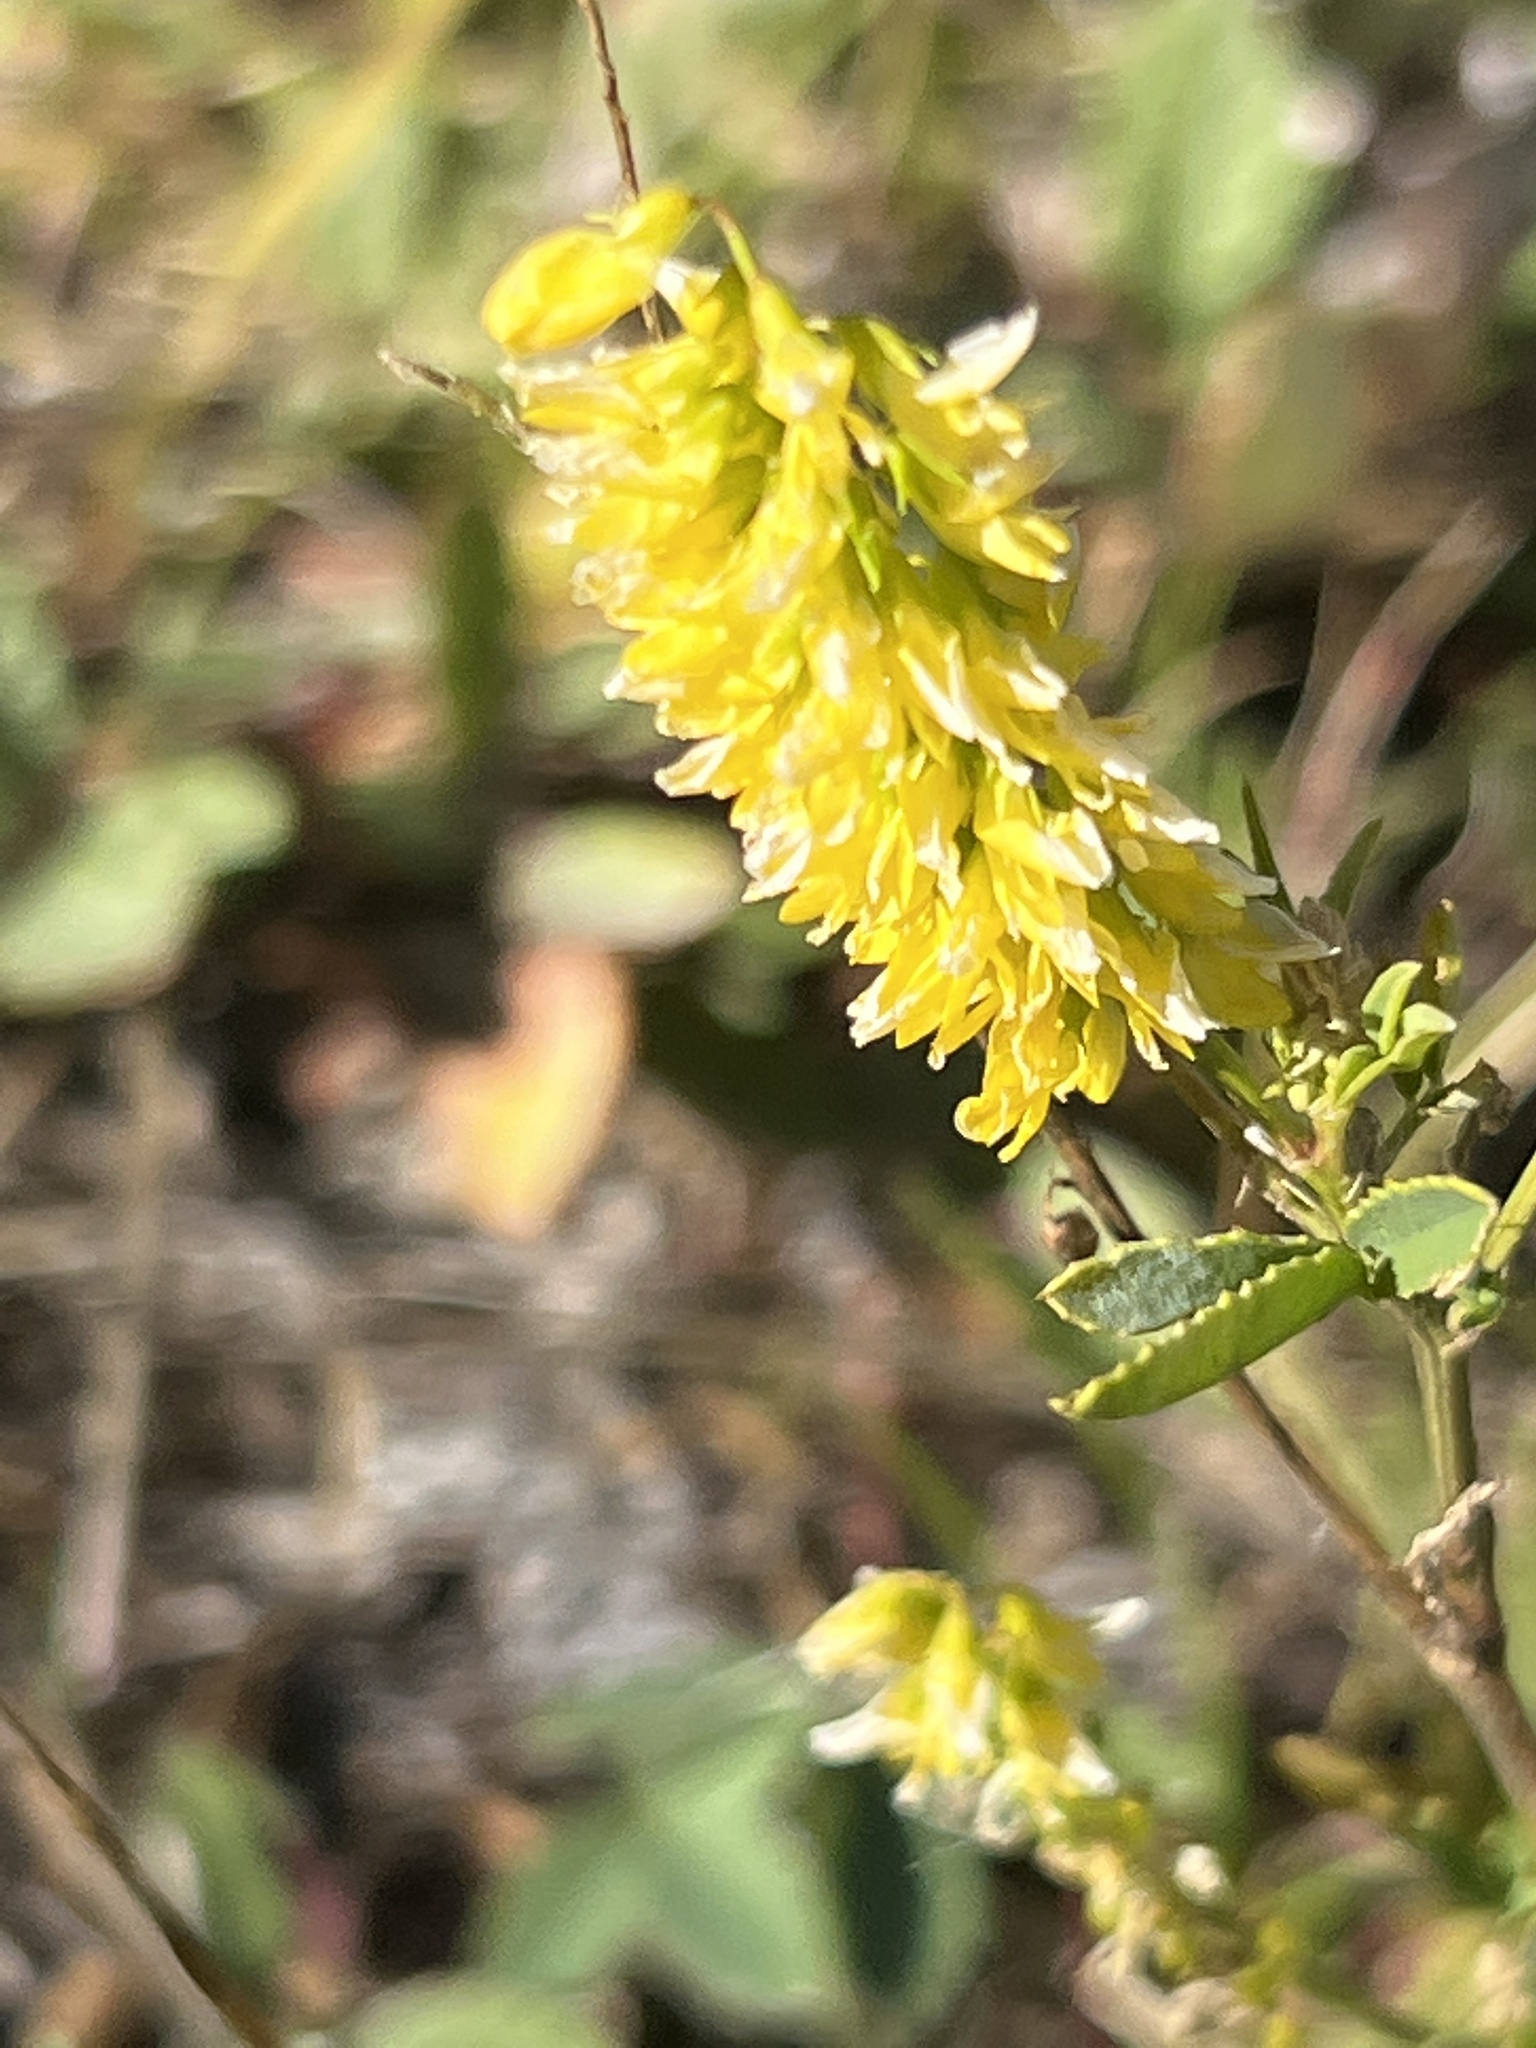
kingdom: Plantae
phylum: Tracheophyta
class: Magnoliopsida
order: Fabales
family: Fabaceae
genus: Melilotus
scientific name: Melilotus officinalis
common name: Sweetclover
